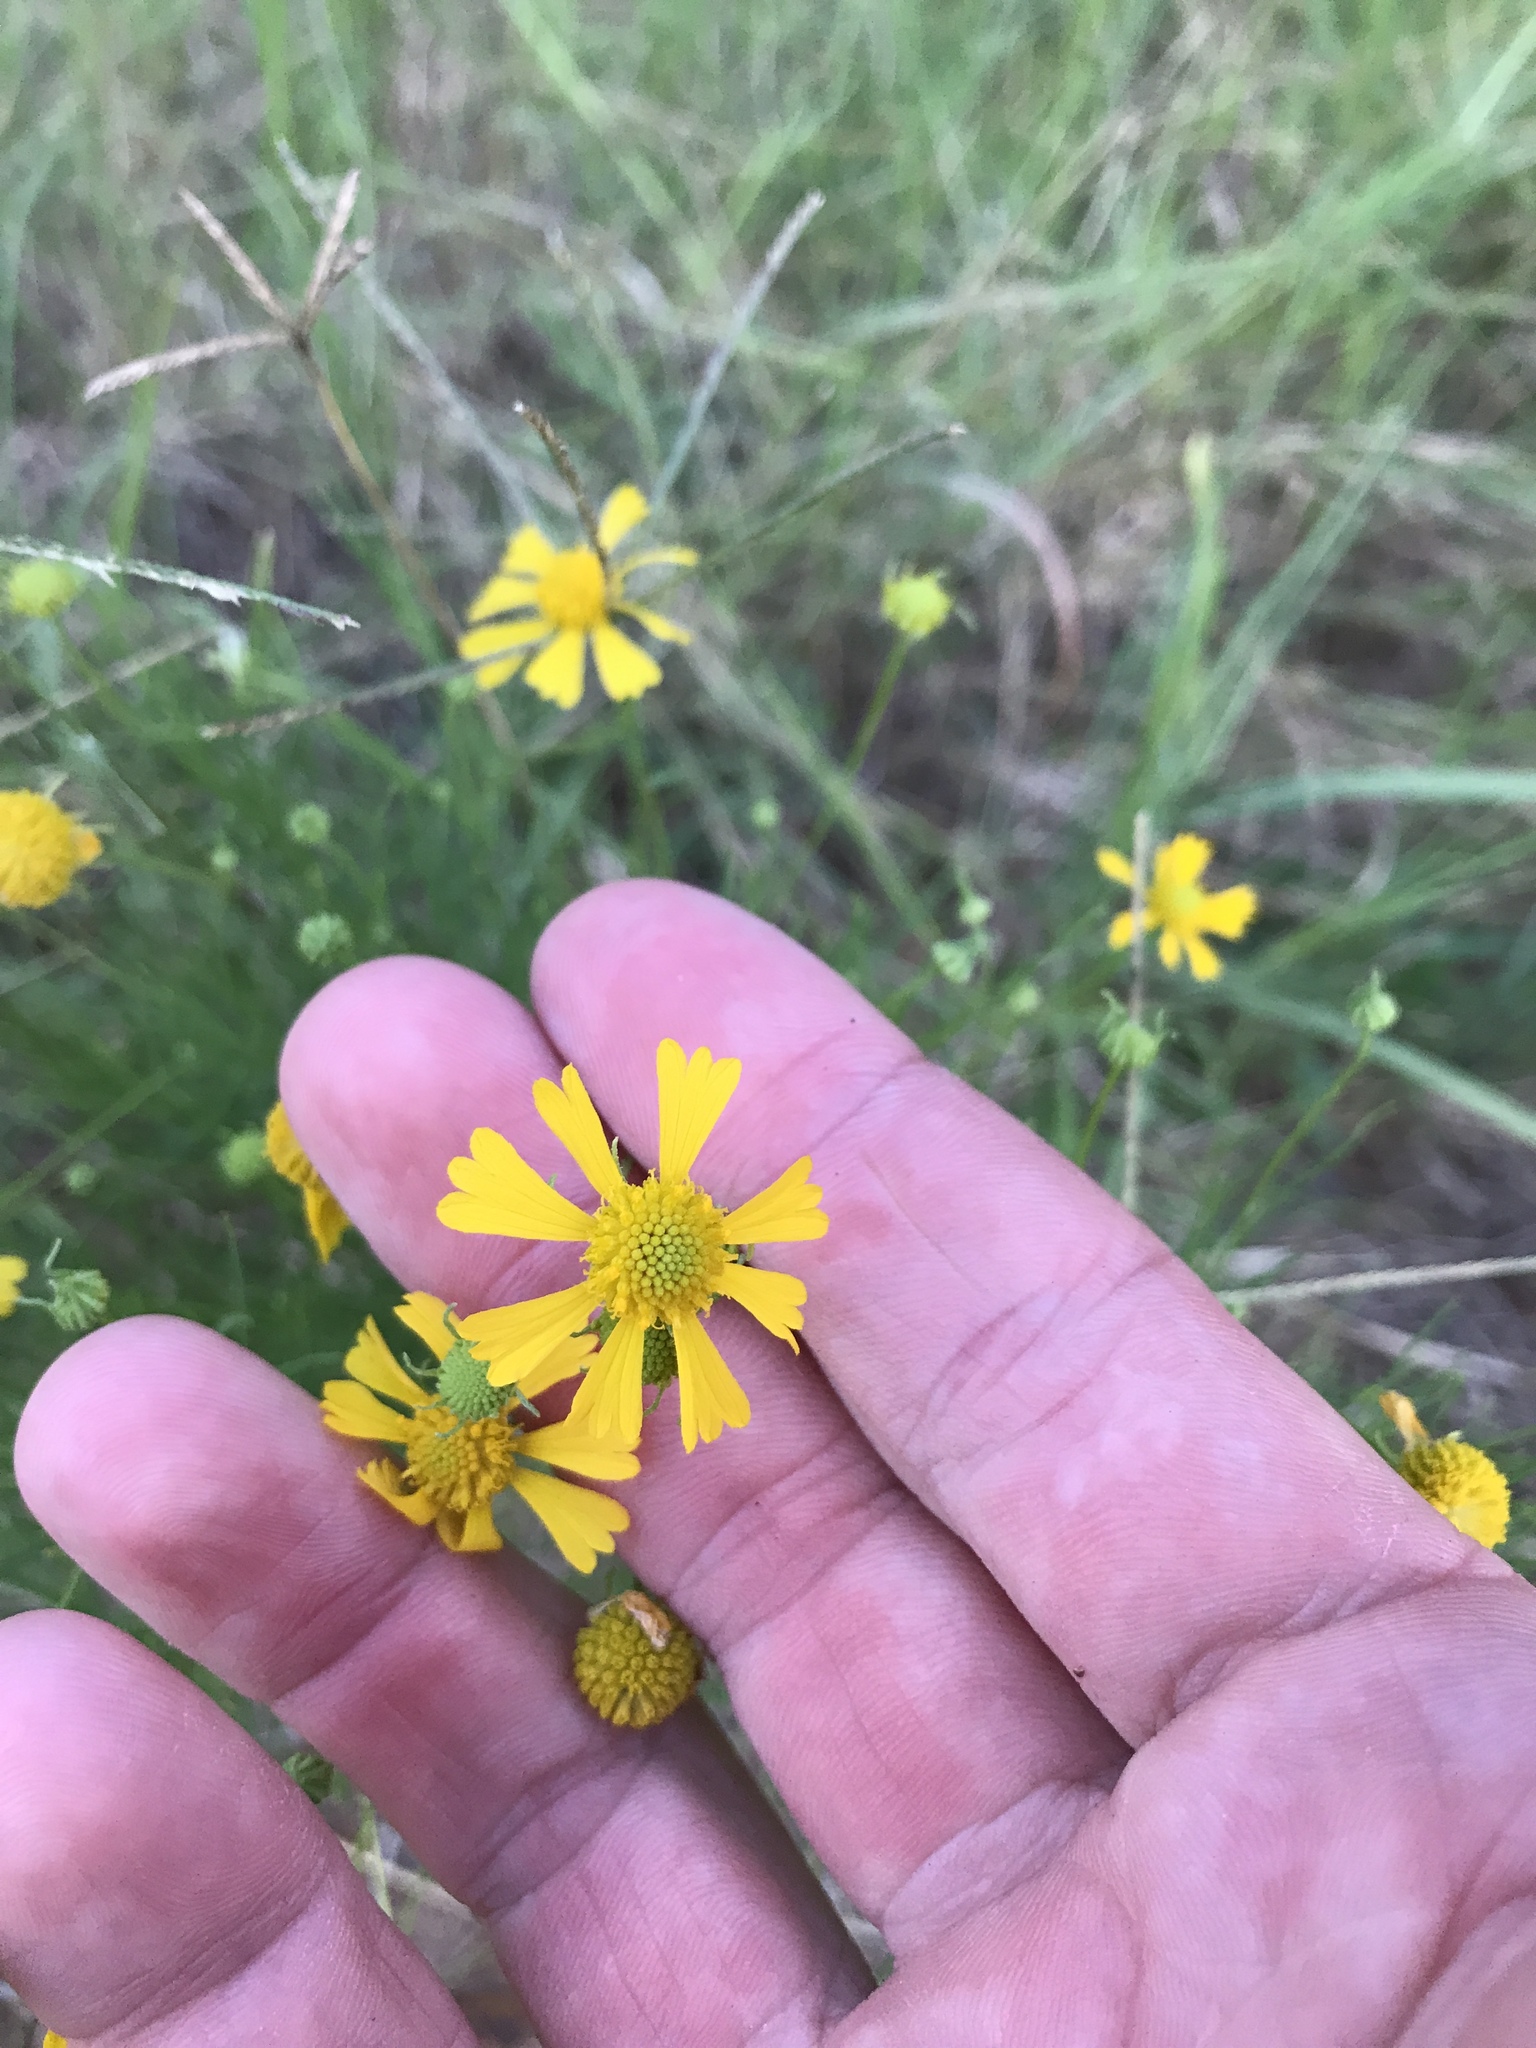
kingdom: Plantae
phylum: Tracheophyta
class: Magnoliopsida
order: Asterales
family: Asteraceae
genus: Helenium
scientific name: Helenium amarum
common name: Bitter sneezeweed
